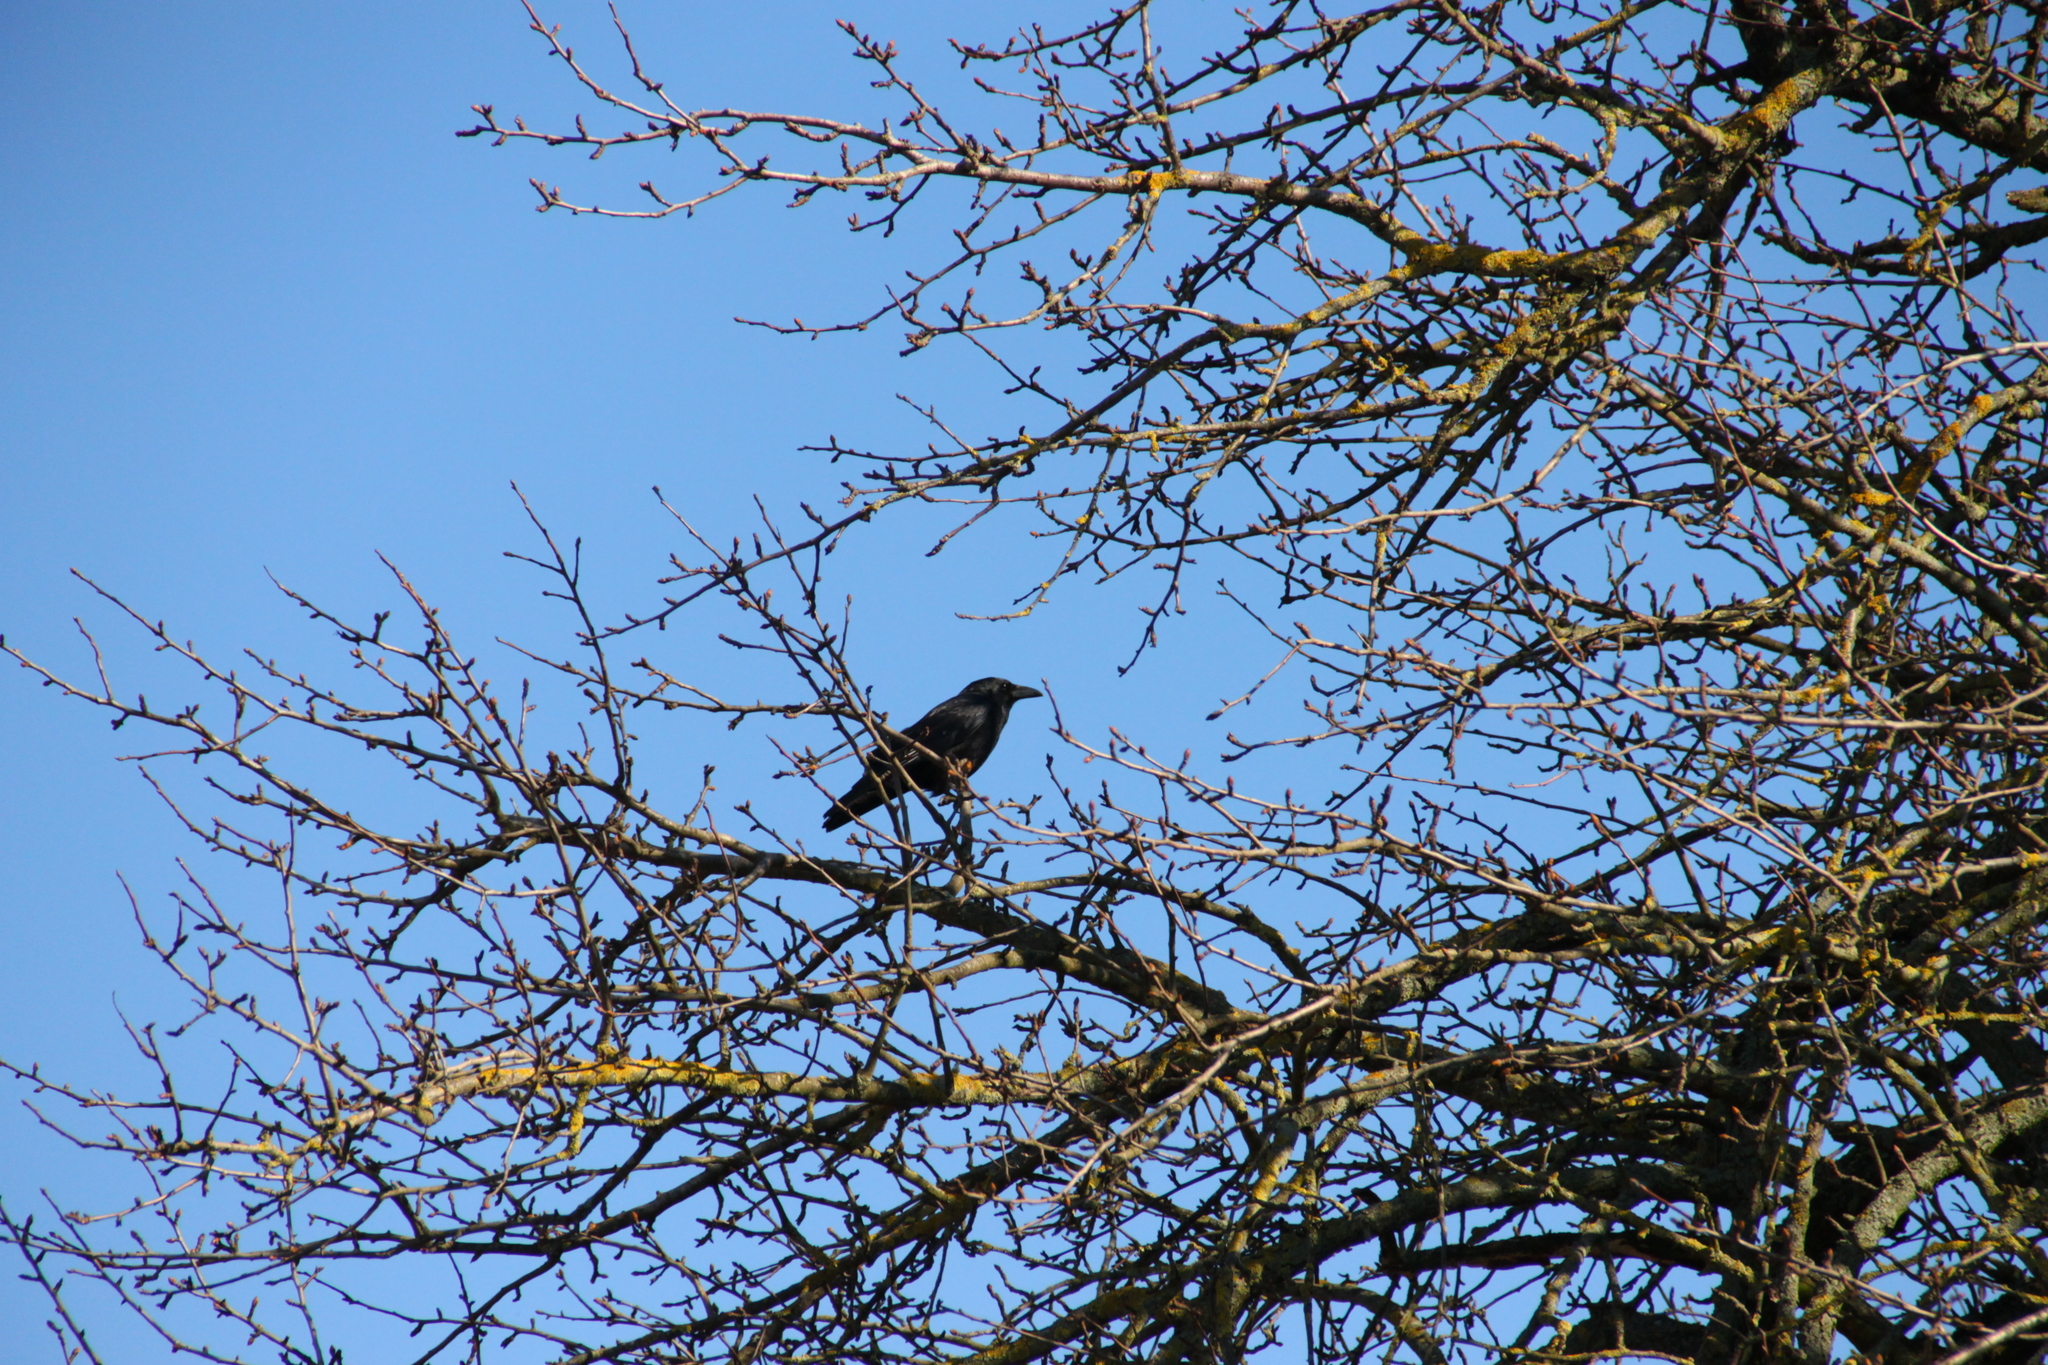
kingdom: Animalia
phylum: Chordata
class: Aves
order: Passeriformes
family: Corvidae
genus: Corvus
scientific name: Corvus corone
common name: Carrion crow
